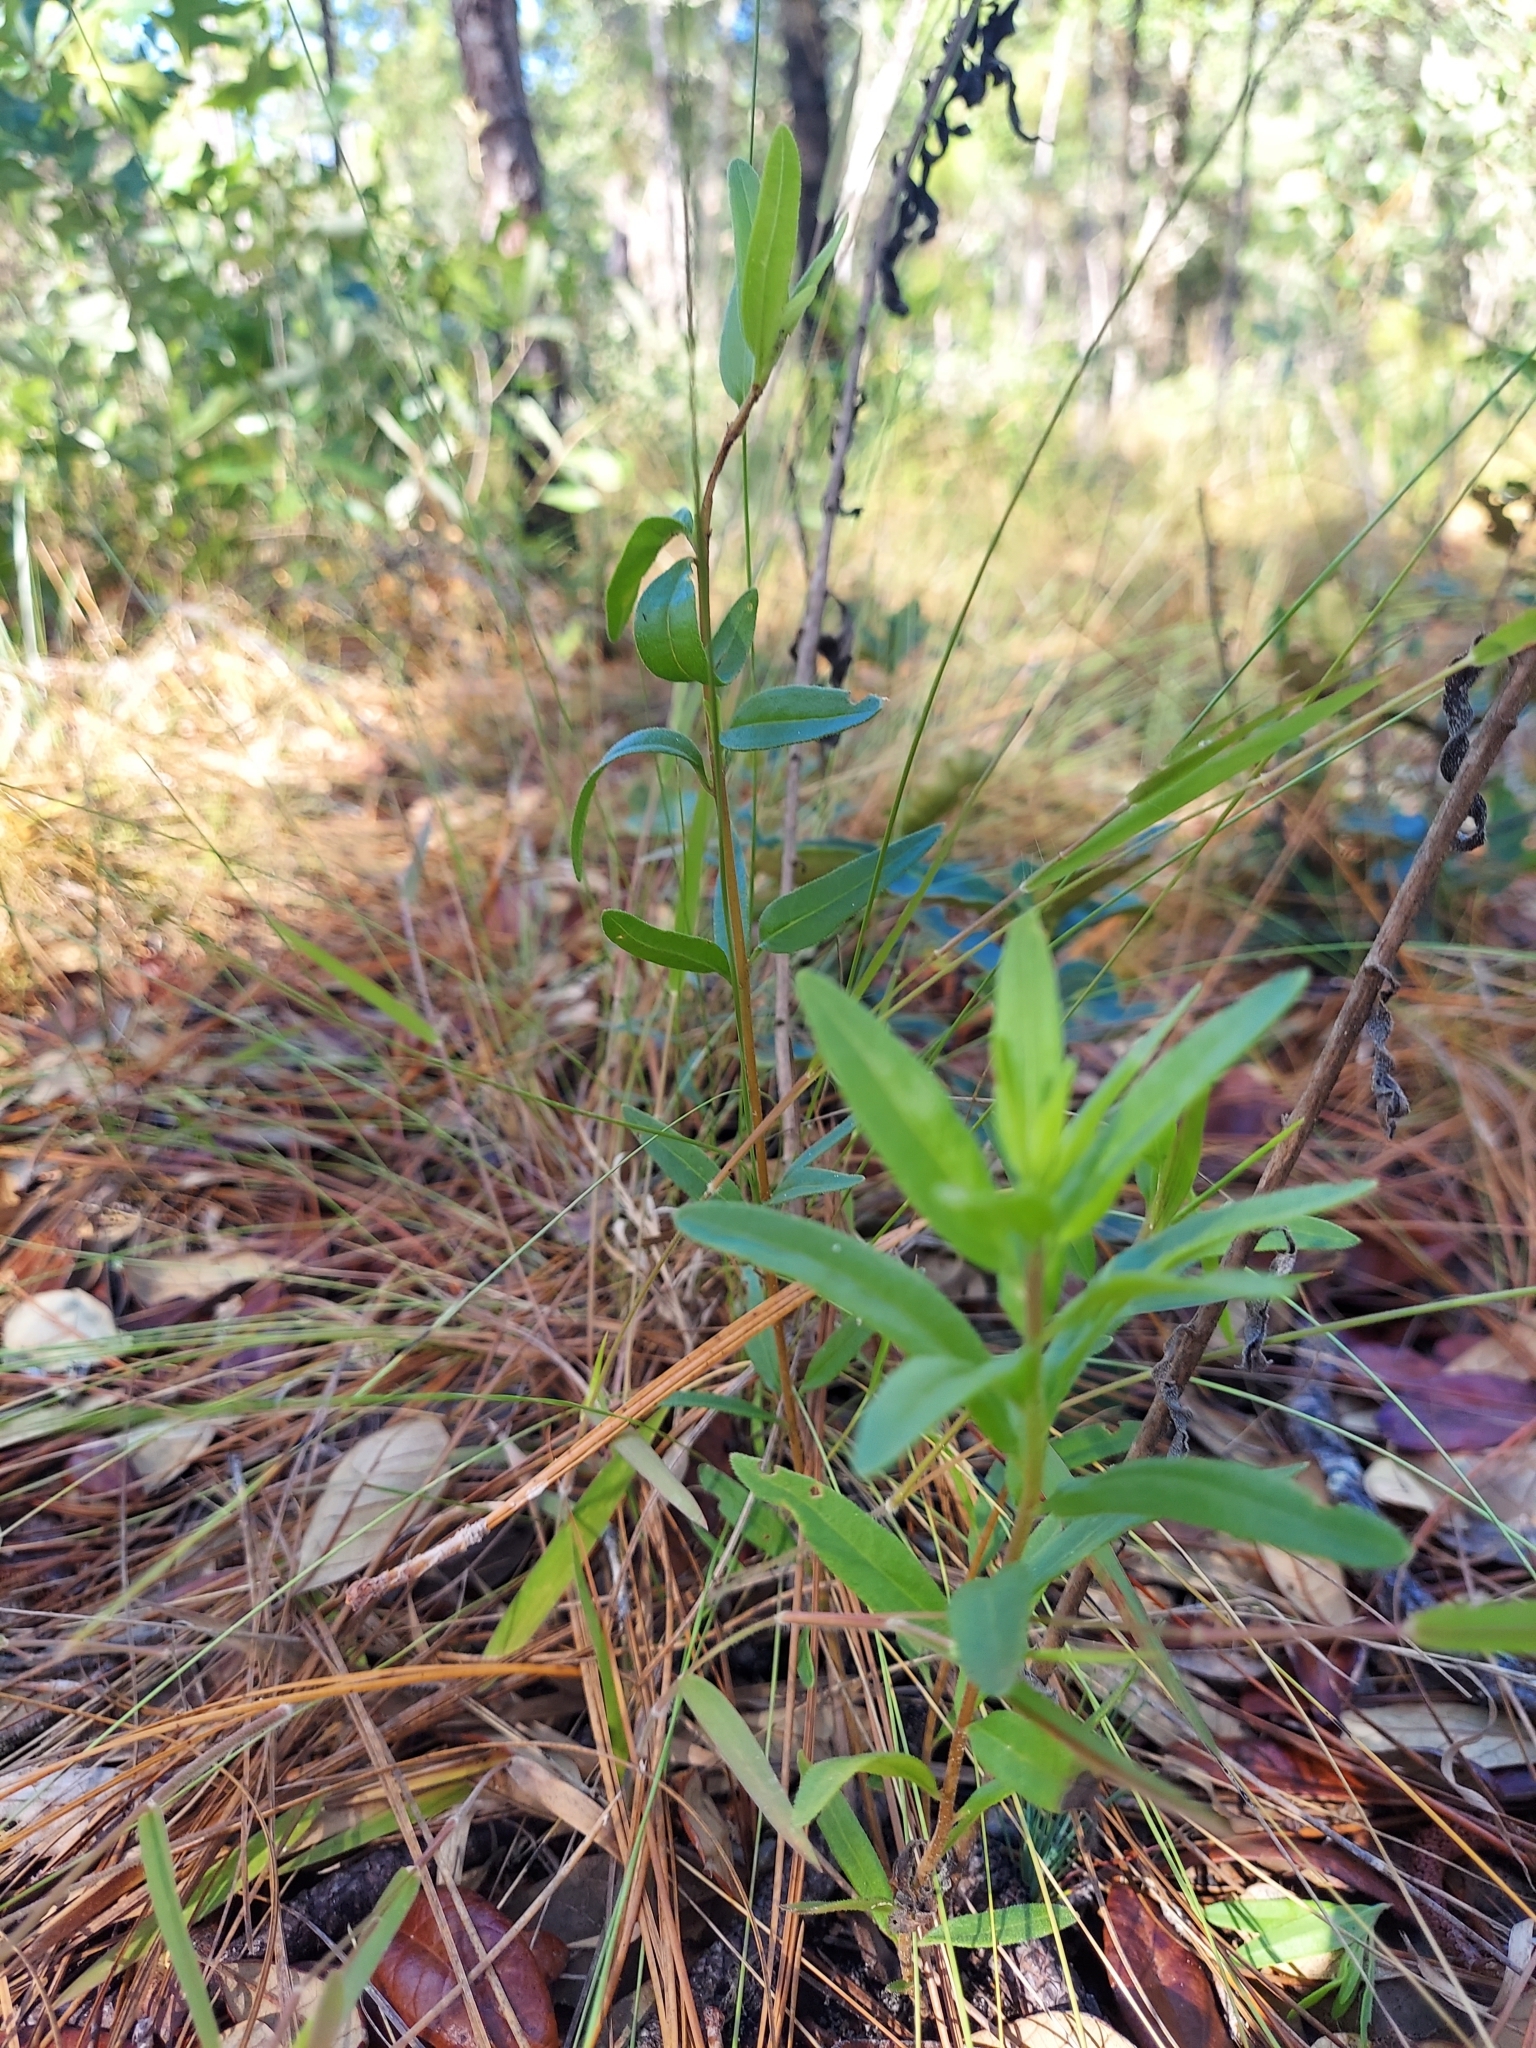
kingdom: Plantae
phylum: Tracheophyta
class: Magnoliopsida
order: Asterales
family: Asteraceae
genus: Palafoxia
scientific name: Palafoxia integrifolia
